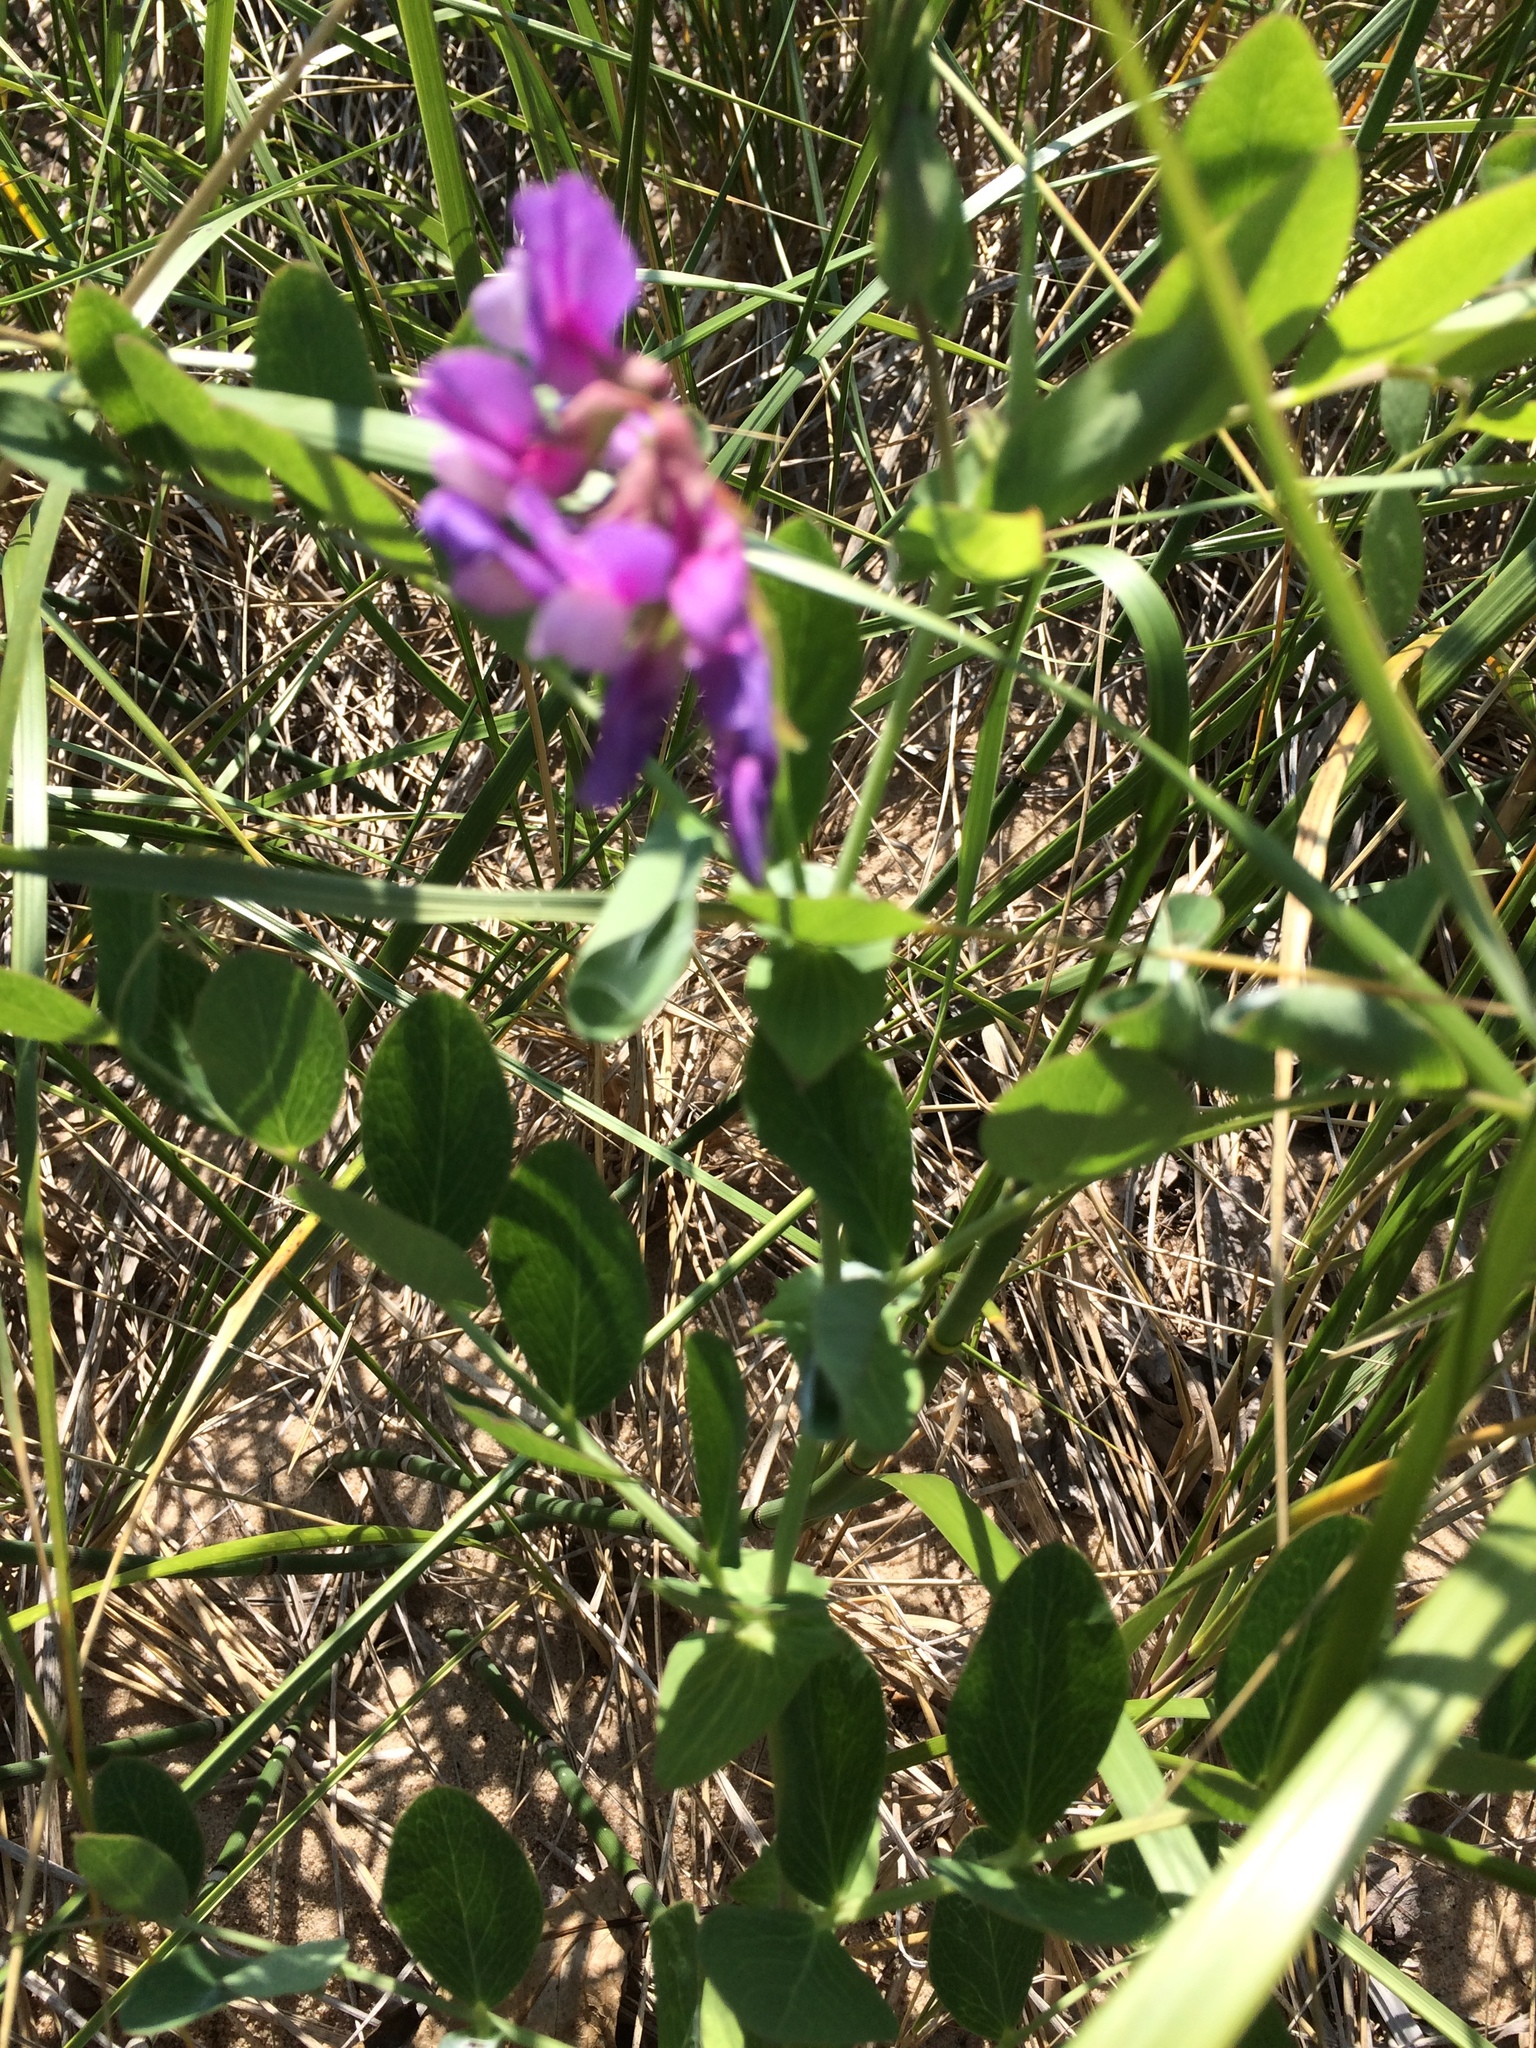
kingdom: Plantae
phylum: Tracheophyta
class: Magnoliopsida
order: Fabales
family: Fabaceae
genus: Lathyrus
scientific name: Lathyrus japonicus
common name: Sea pea
